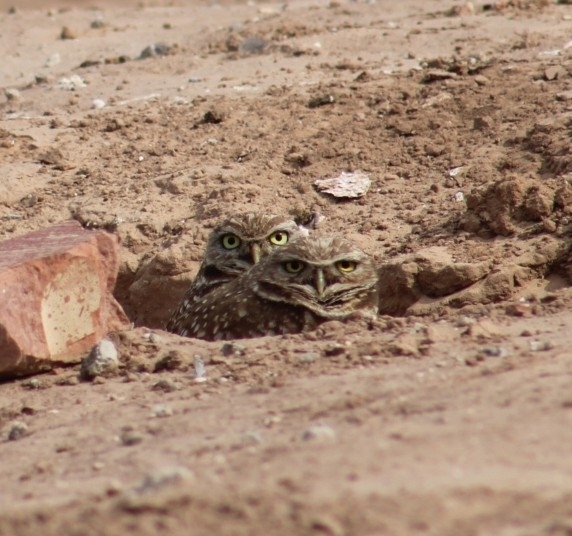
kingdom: Animalia
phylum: Chordata
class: Aves
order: Strigiformes
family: Strigidae
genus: Athene
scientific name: Athene cunicularia
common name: Burrowing owl
